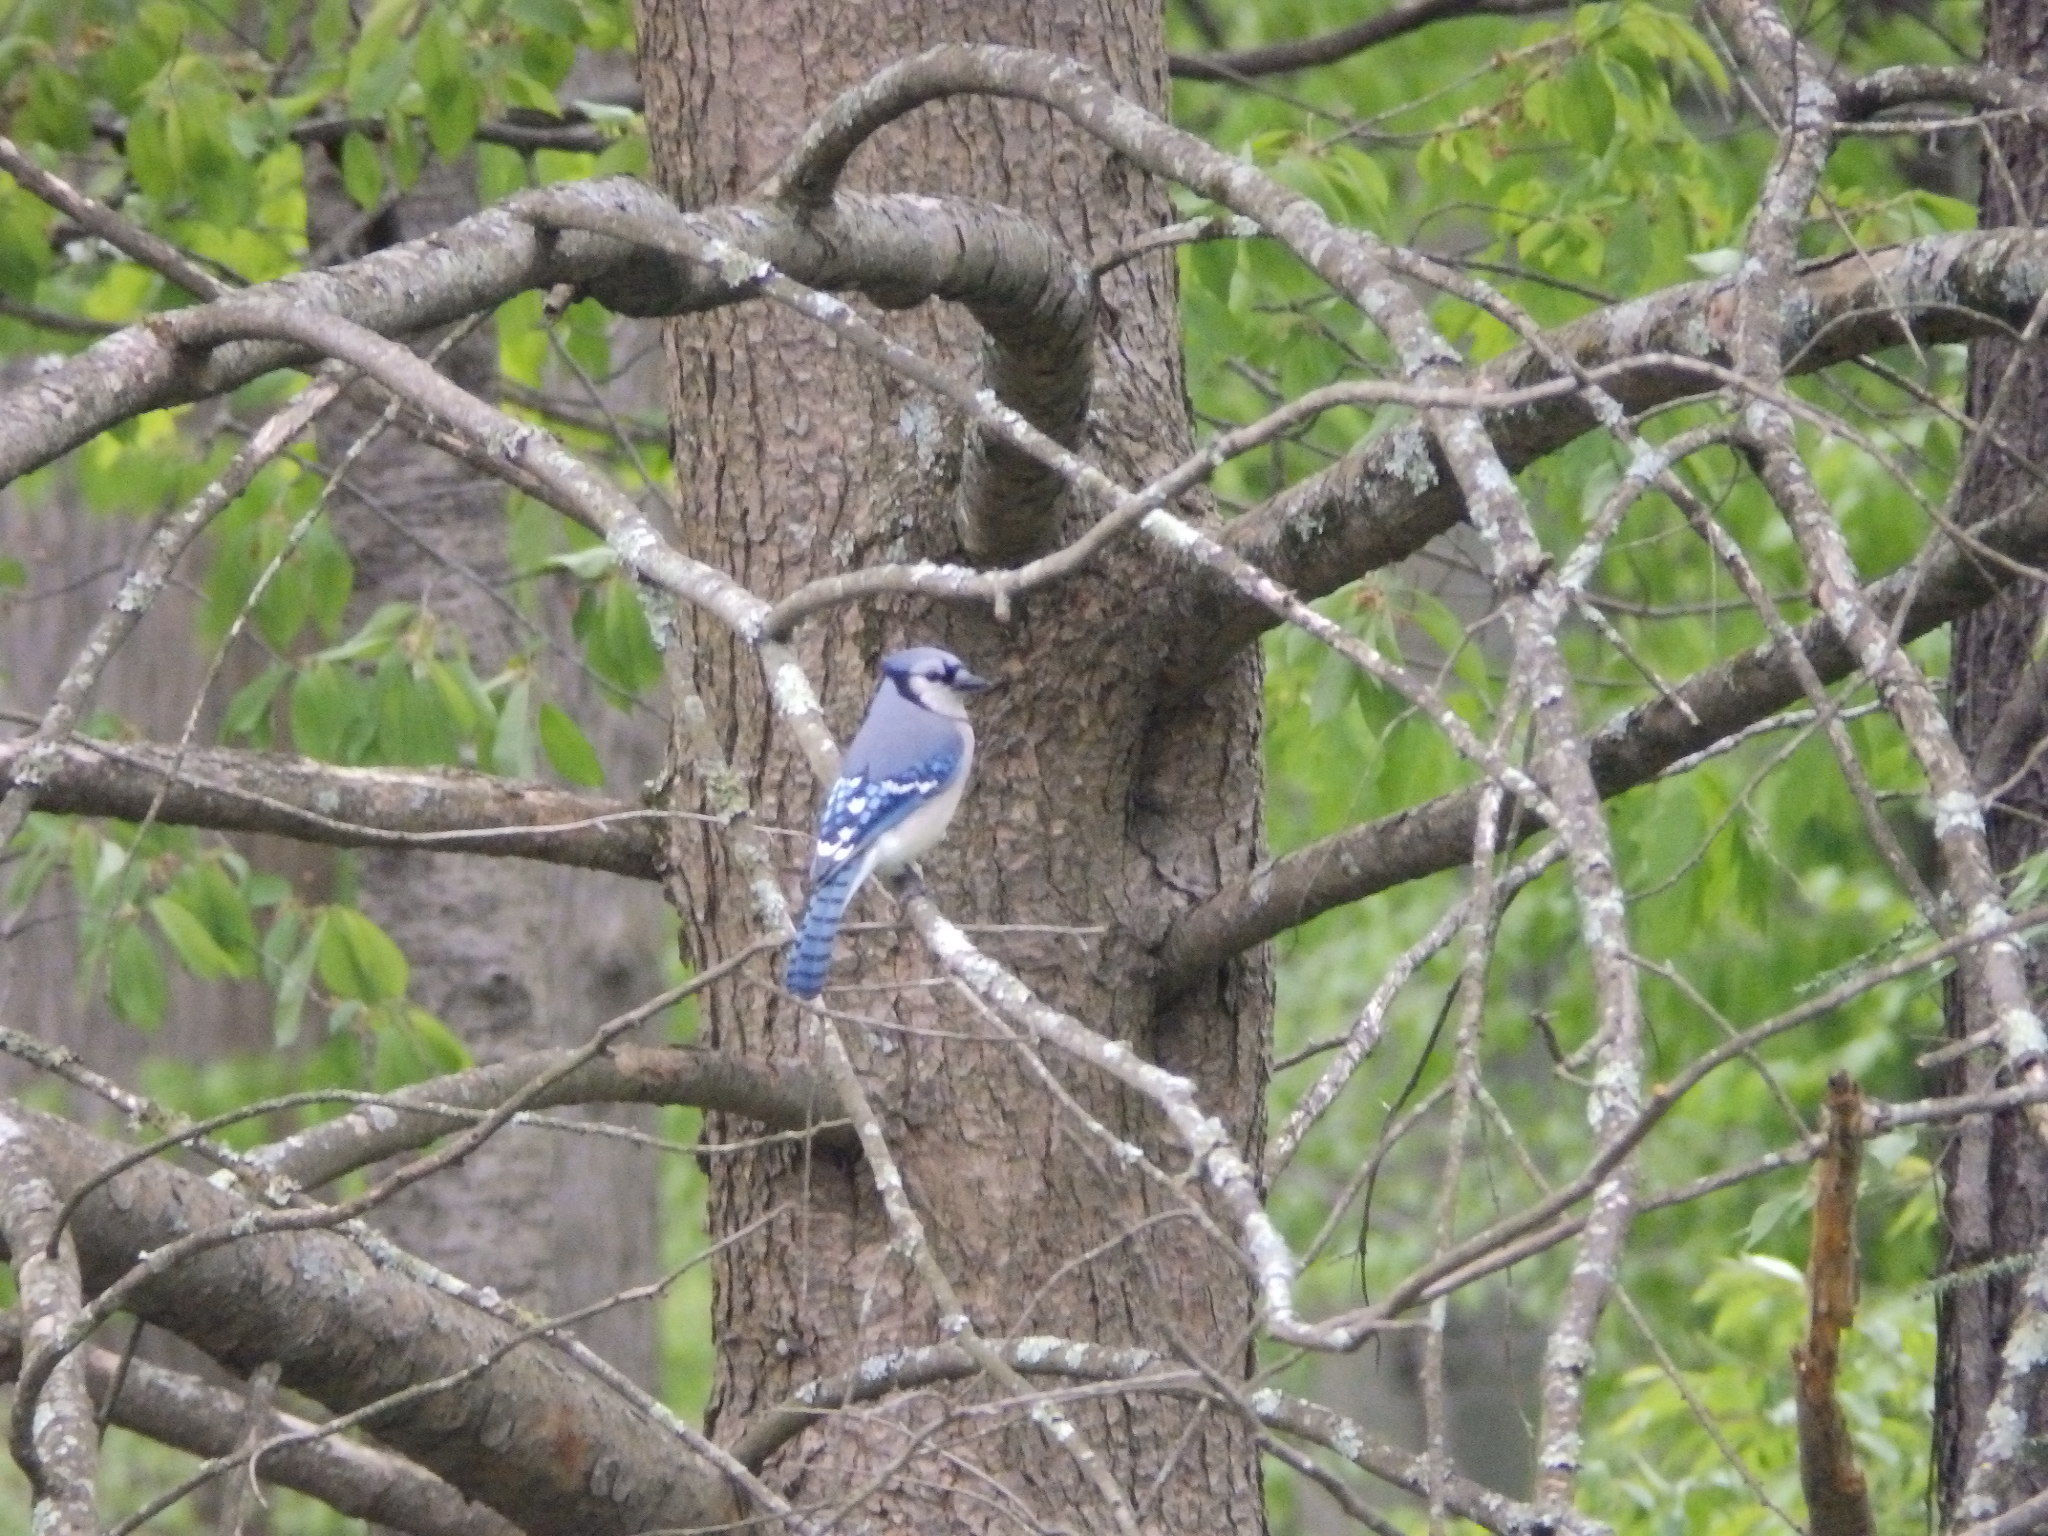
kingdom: Animalia
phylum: Chordata
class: Aves
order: Passeriformes
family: Corvidae
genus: Cyanocitta
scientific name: Cyanocitta cristata
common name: Blue jay
